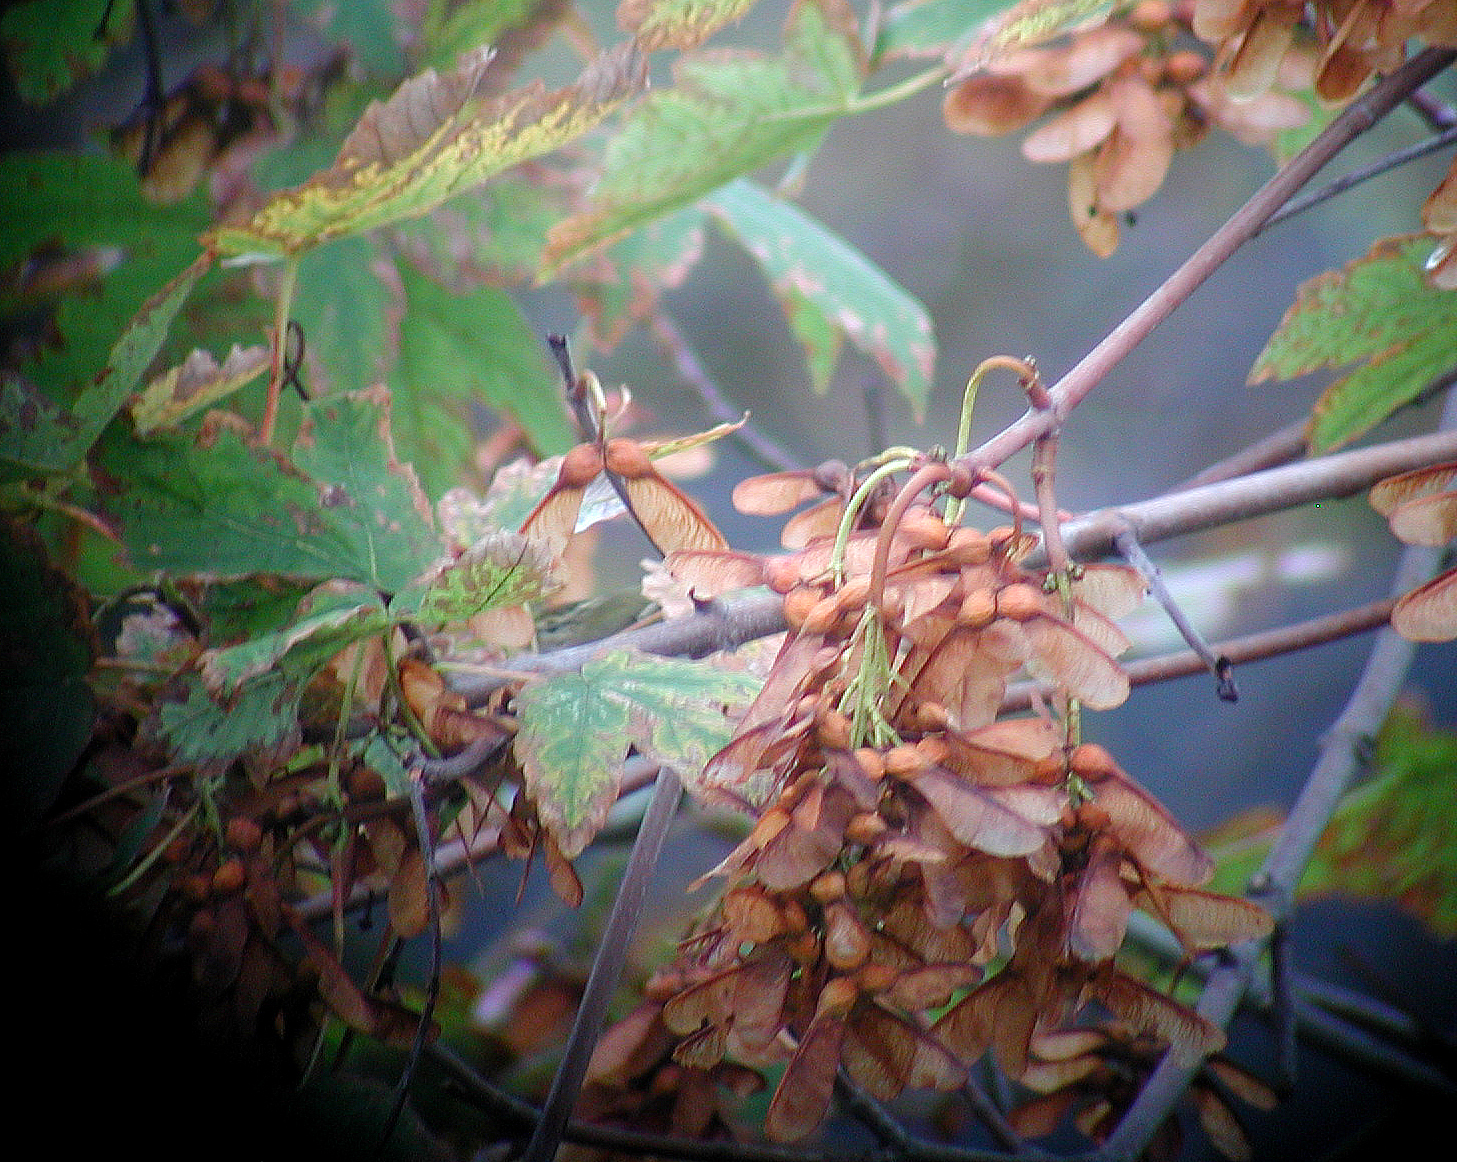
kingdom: Animalia
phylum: Chordata
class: Aves
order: Passeriformes
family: Phylloscopidae
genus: Phylloscopus
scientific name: Phylloscopus inornatus
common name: Yellow-browed warbler
